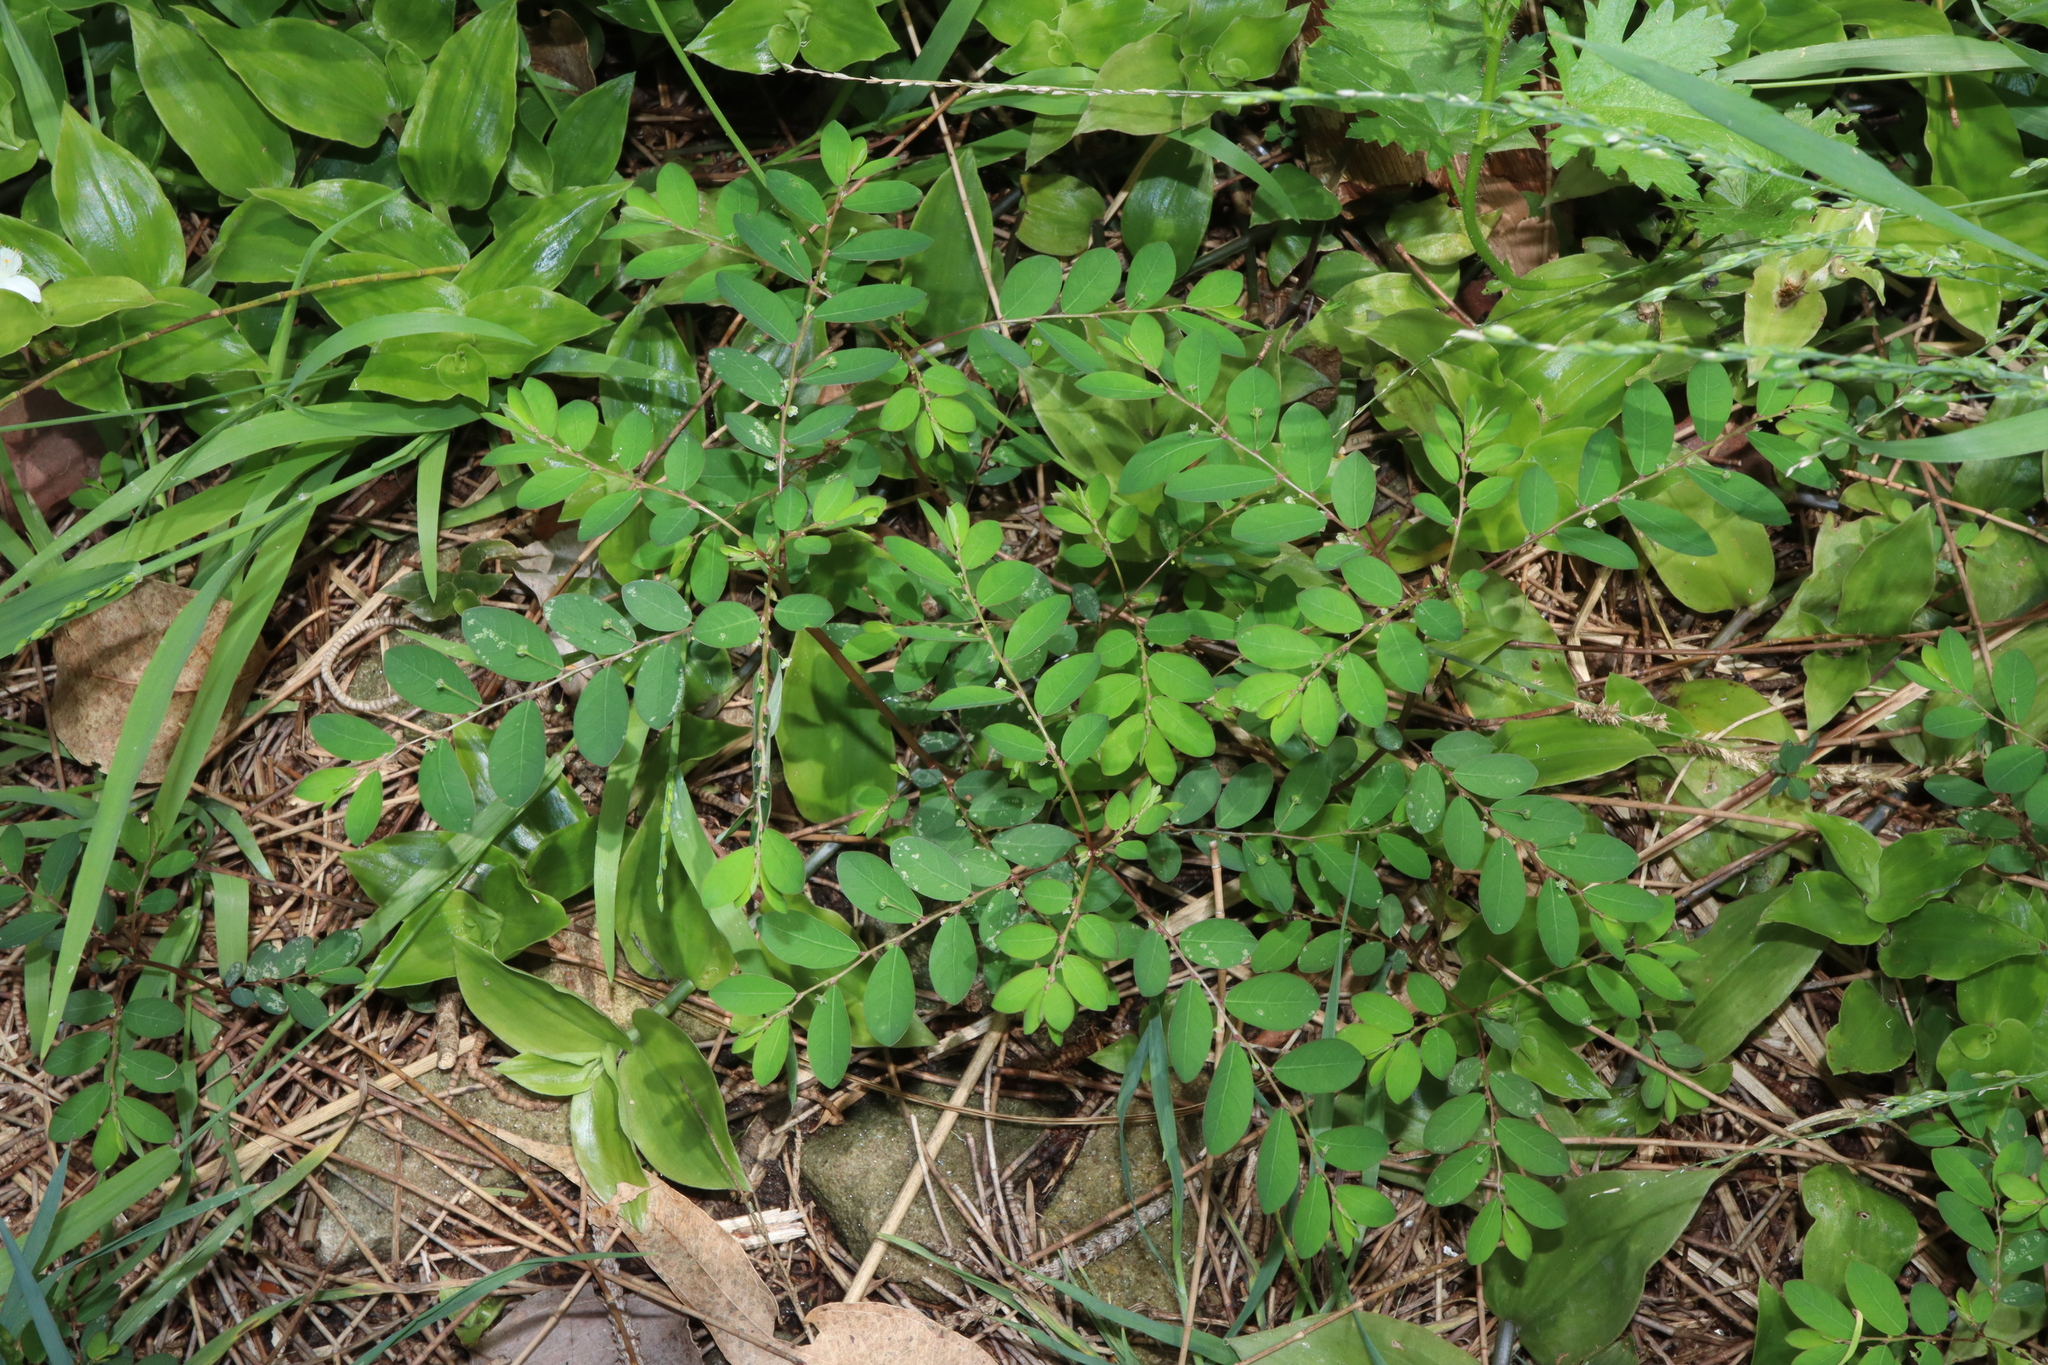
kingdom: Plantae
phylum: Tracheophyta
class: Magnoliopsida
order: Malpighiales
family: Phyllanthaceae
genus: Phyllanthus
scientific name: Phyllanthus tenellus
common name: Mascarene island leaf-flower
